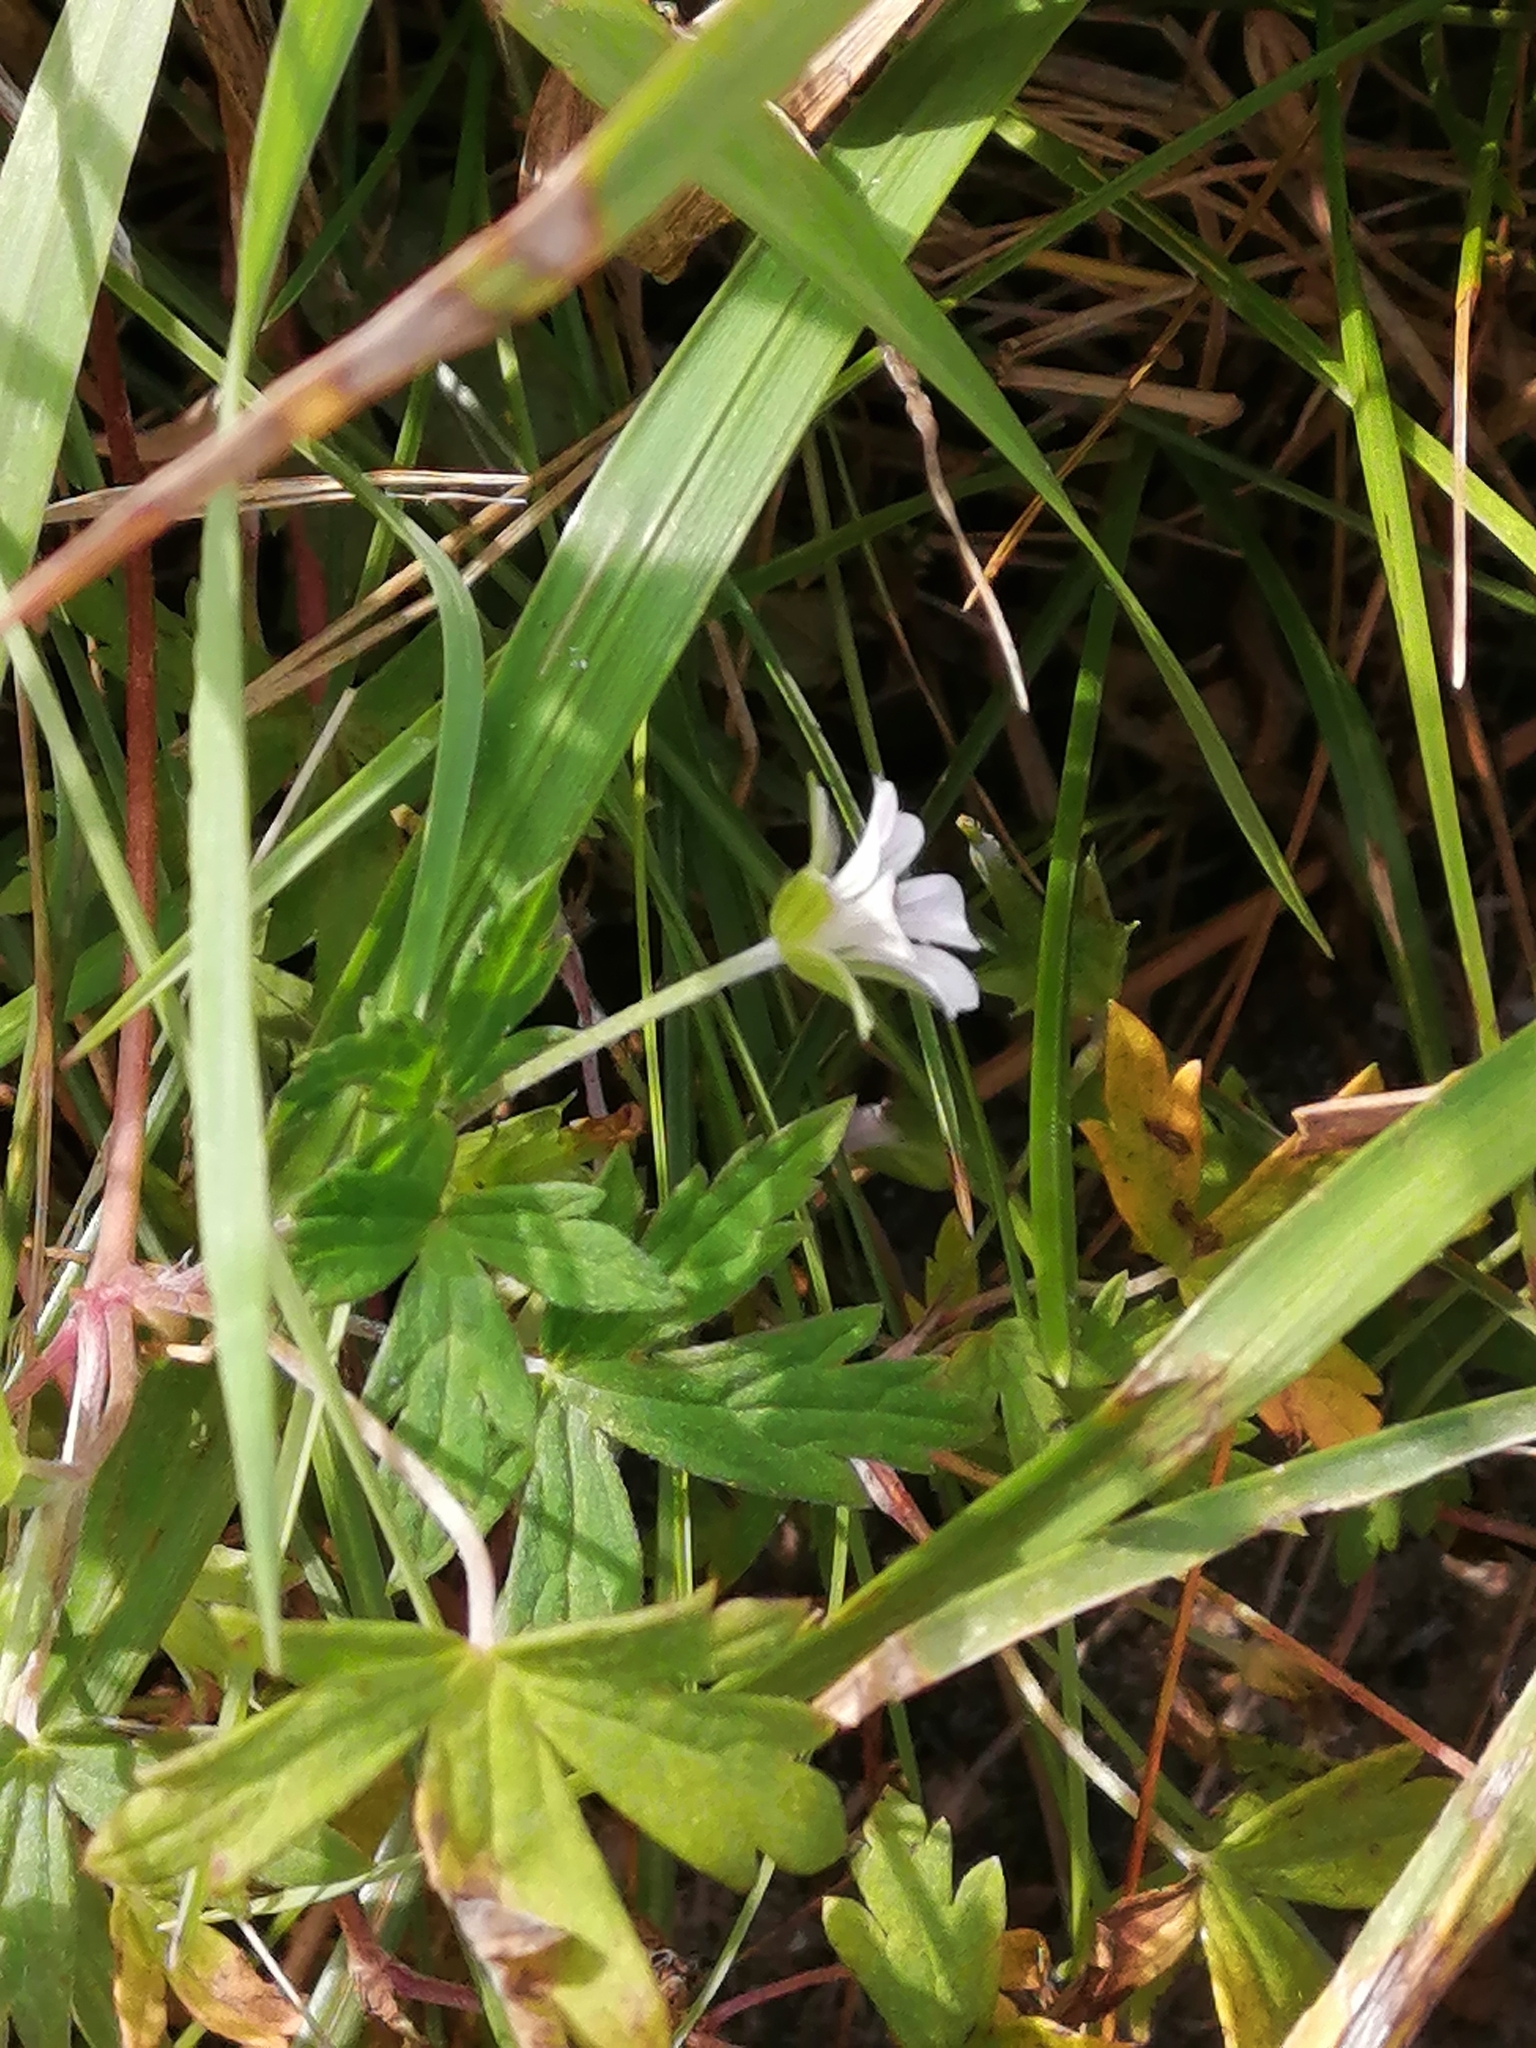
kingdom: Plantae
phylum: Tracheophyta
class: Magnoliopsida
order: Geraniales
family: Geraniaceae
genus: Geranium
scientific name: Geranium sibiricum
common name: Siberian crane's-bill
